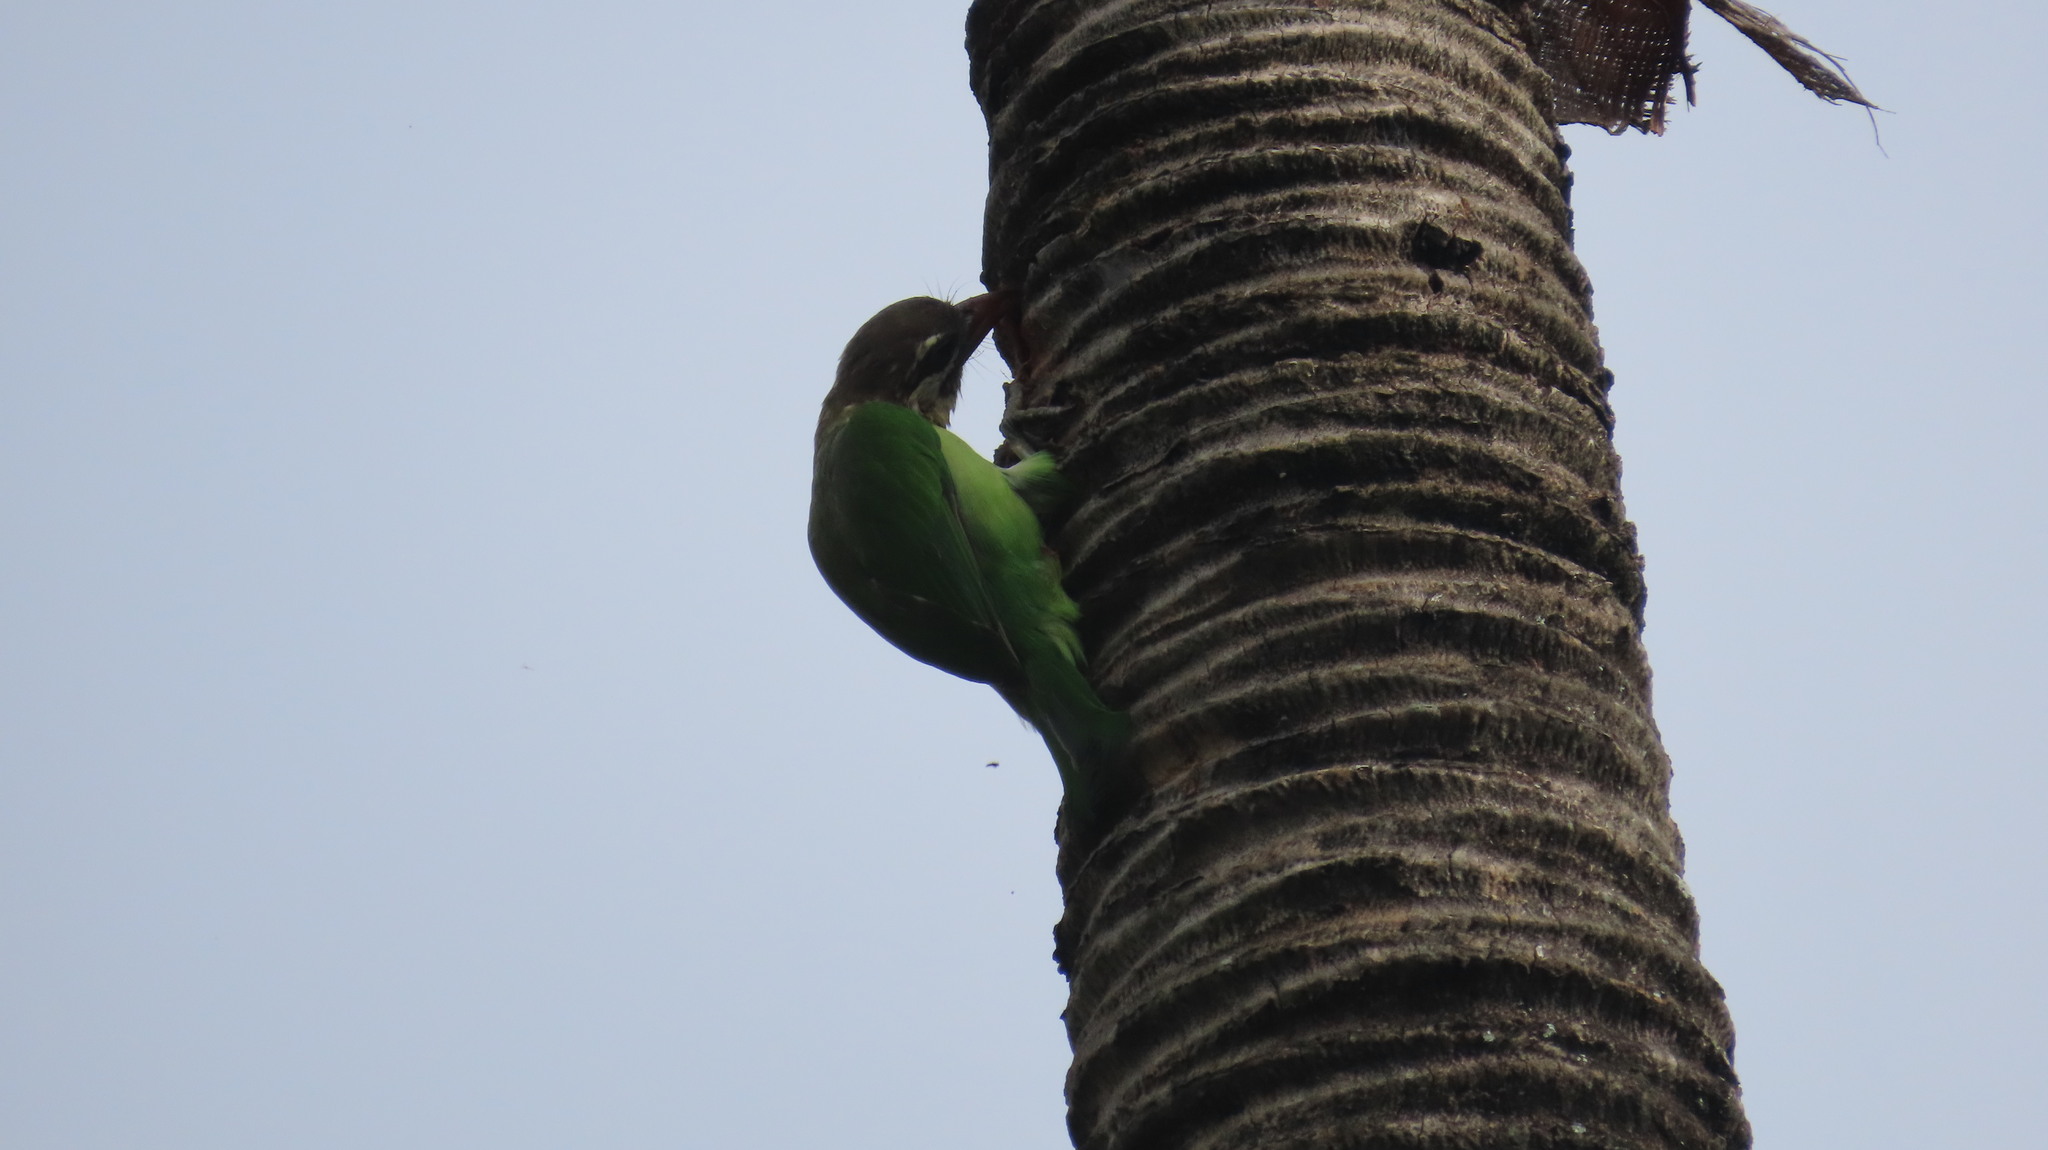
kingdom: Animalia
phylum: Chordata
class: Aves
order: Piciformes
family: Megalaimidae
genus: Psilopogon
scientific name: Psilopogon viridis
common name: White-cheeked barbet
